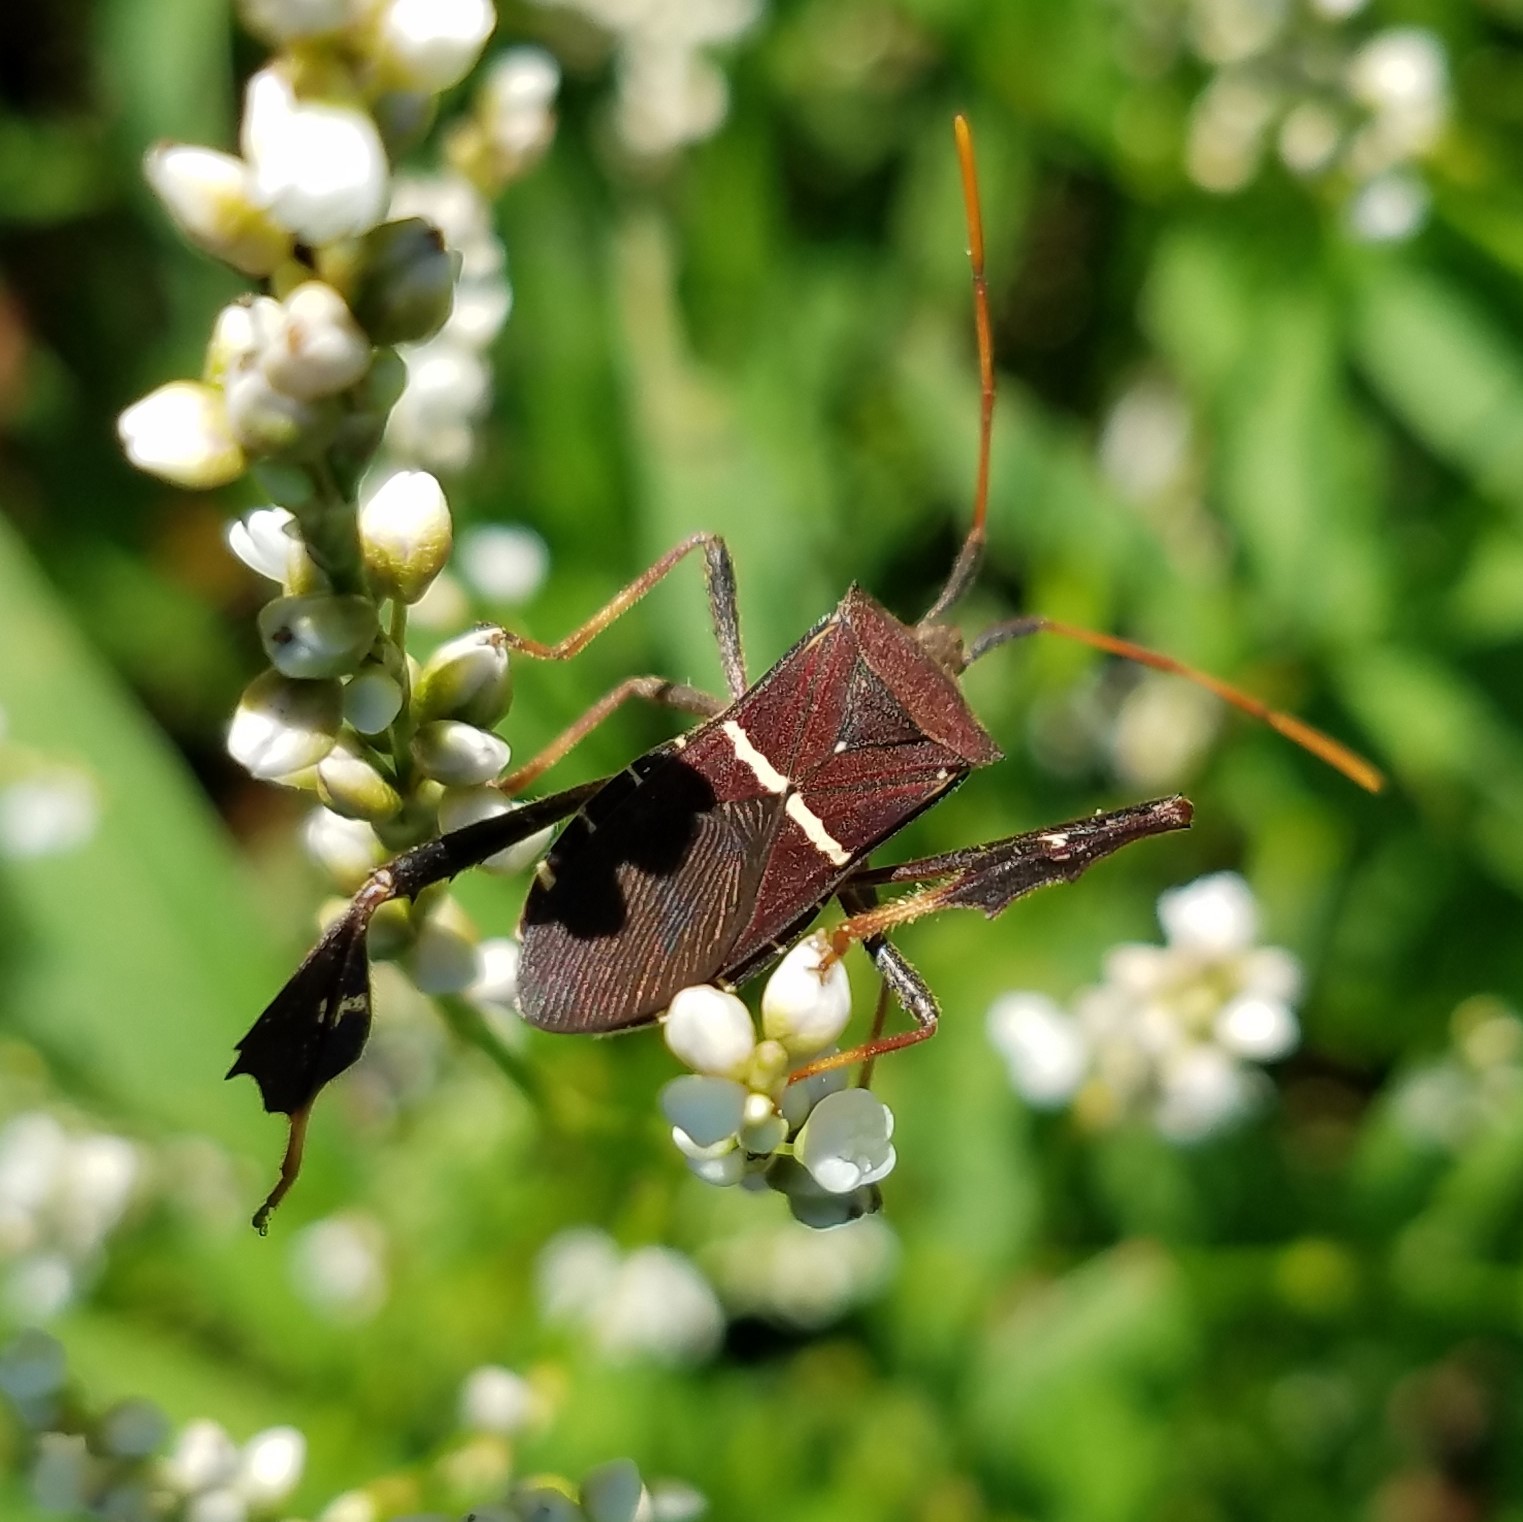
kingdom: Animalia
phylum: Arthropoda
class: Insecta
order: Hemiptera
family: Coreidae
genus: Leptoglossus
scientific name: Leptoglossus phyllopus
